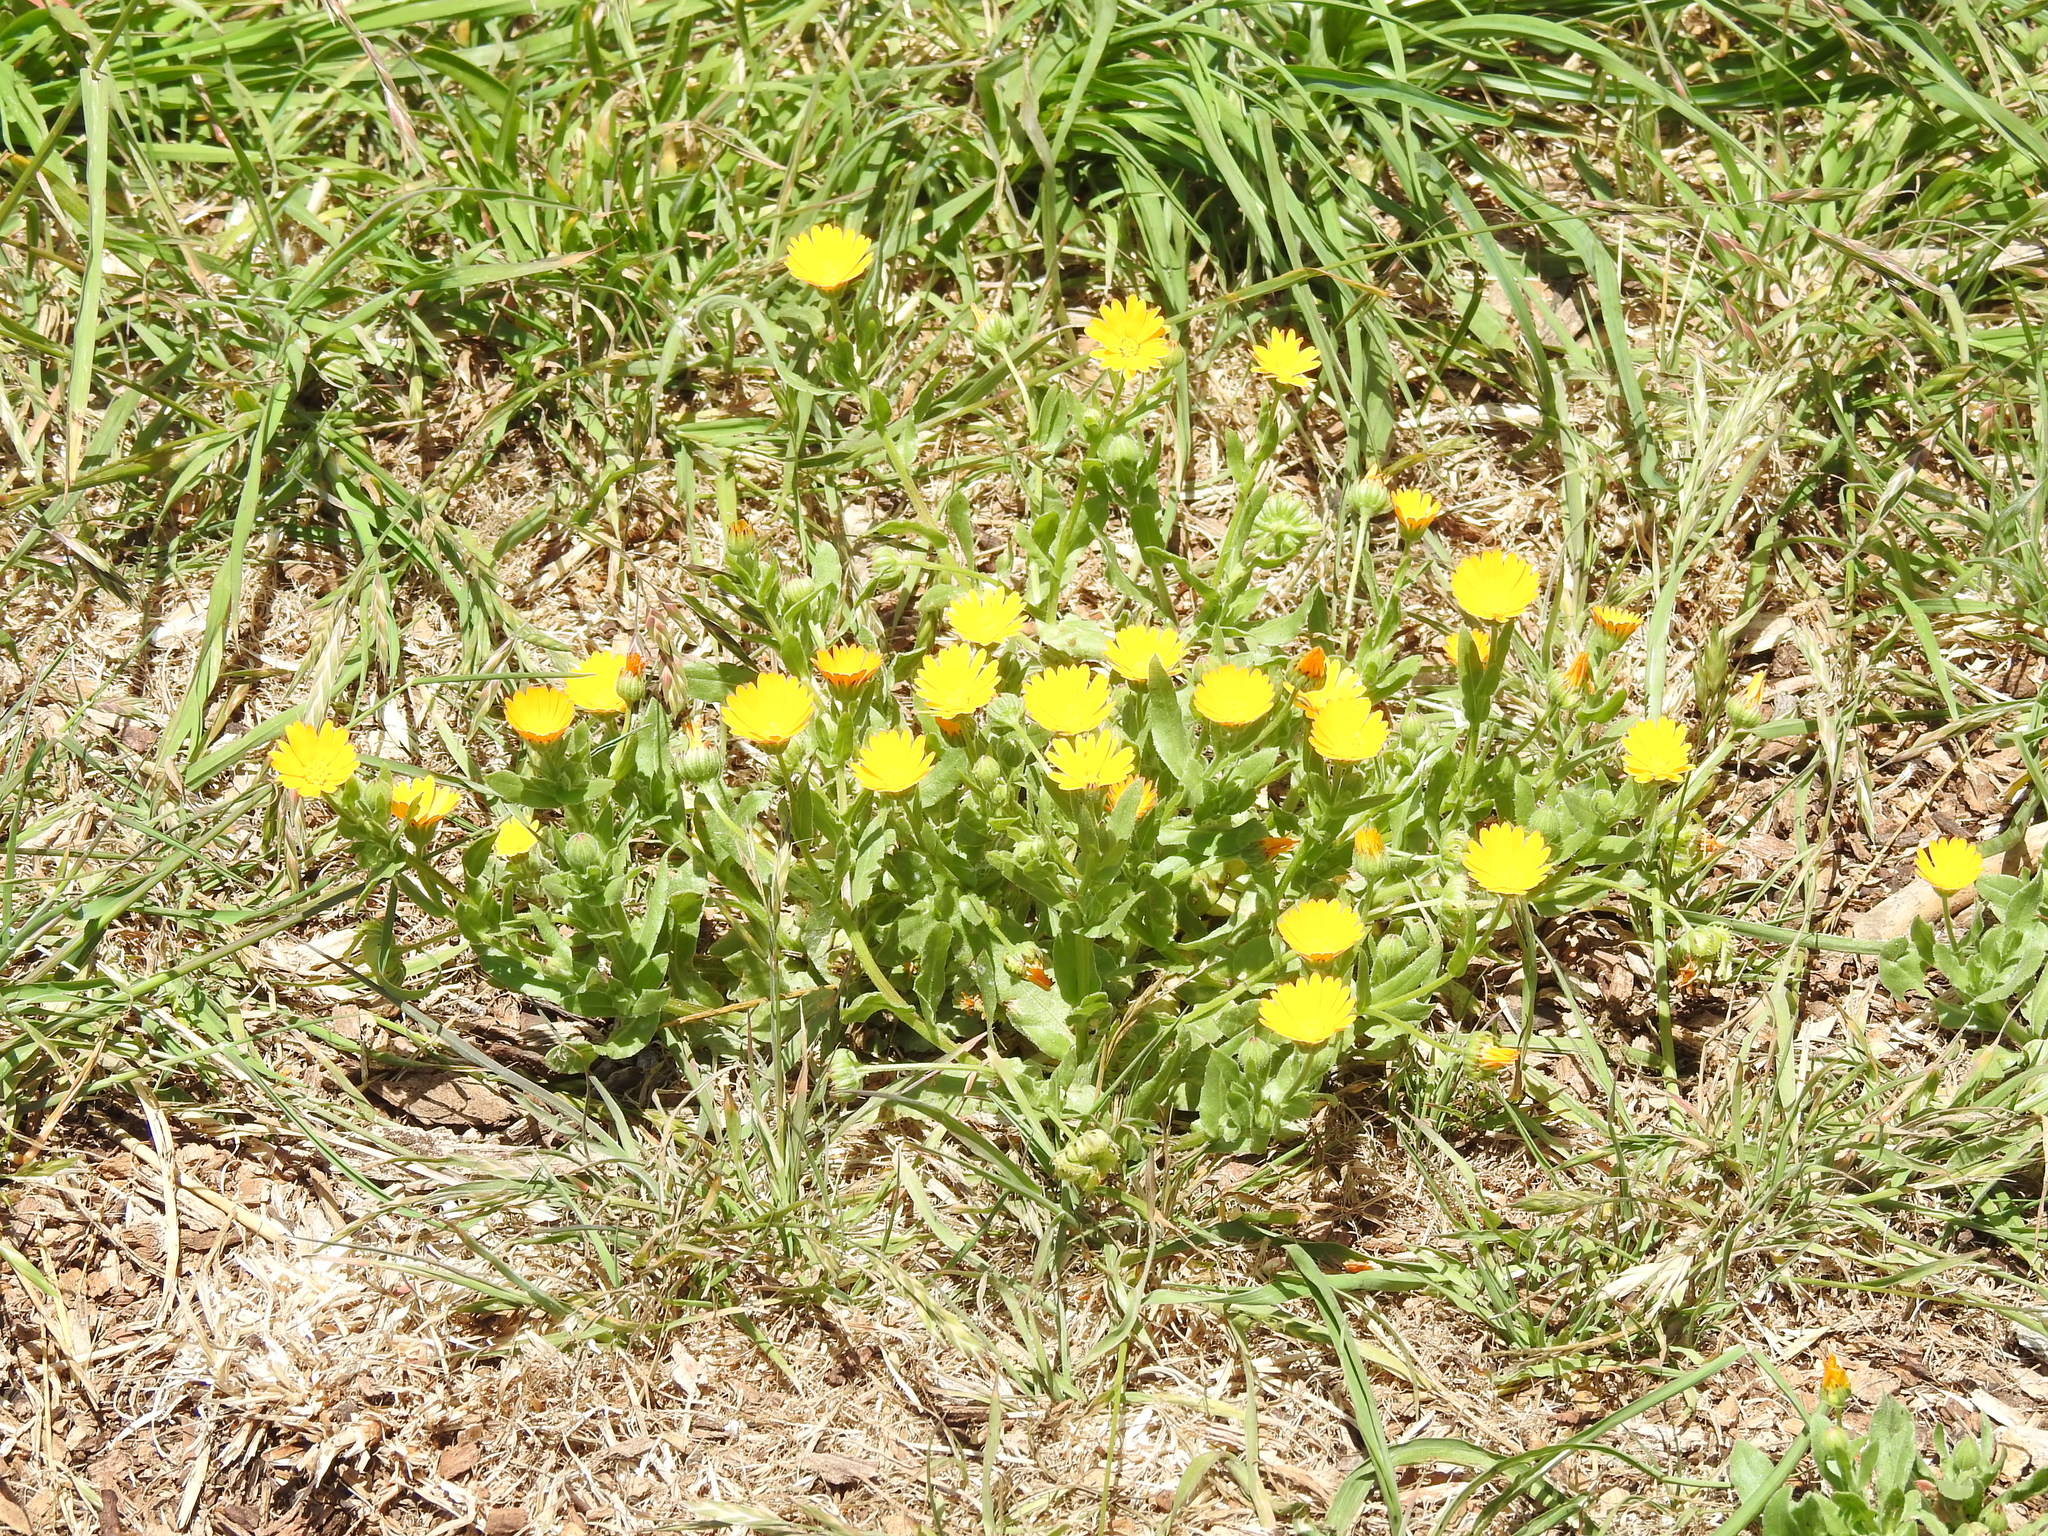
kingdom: Plantae
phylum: Tracheophyta
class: Magnoliopsida
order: Asterales
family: Asteraceae
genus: Calendula
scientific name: Calendula arvensis
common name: Field marigold
